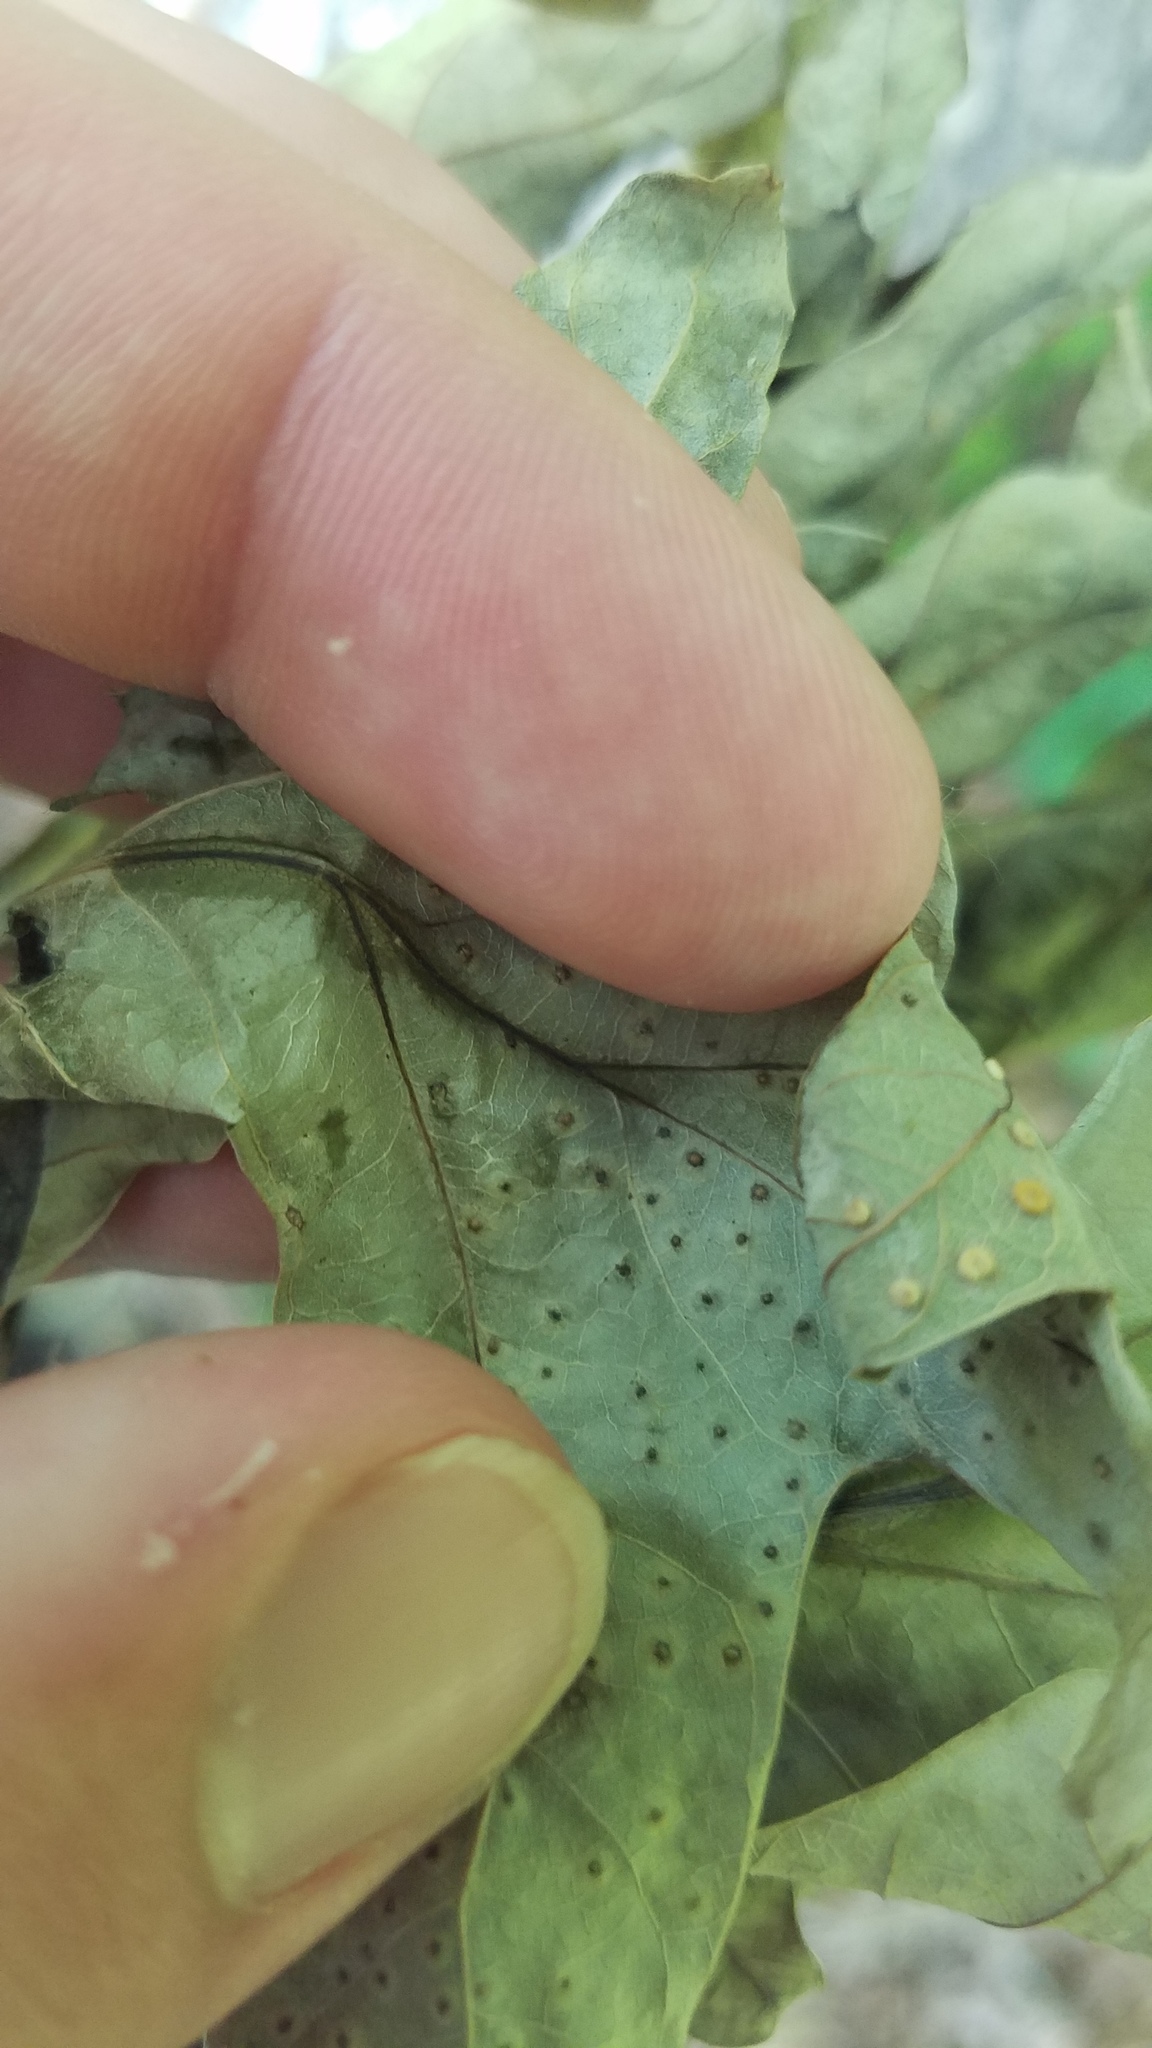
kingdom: Animalia
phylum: Arthropoda
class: Insecta
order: Hymenoptera
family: Cynipidae
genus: Neuroterus
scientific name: Neuroterus
